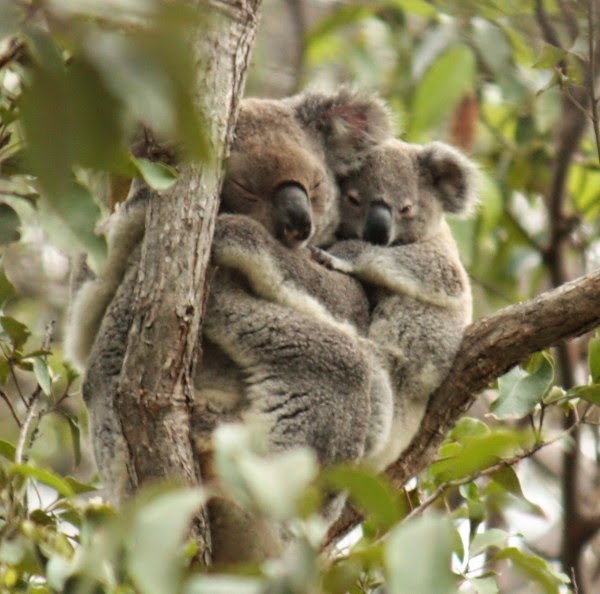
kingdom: Animalia
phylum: Chordata
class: Mammalia
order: Diprotodontia
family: Phascolarctidae
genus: Phascolarctos
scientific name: Phascolarctos cinereus
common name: Koala
